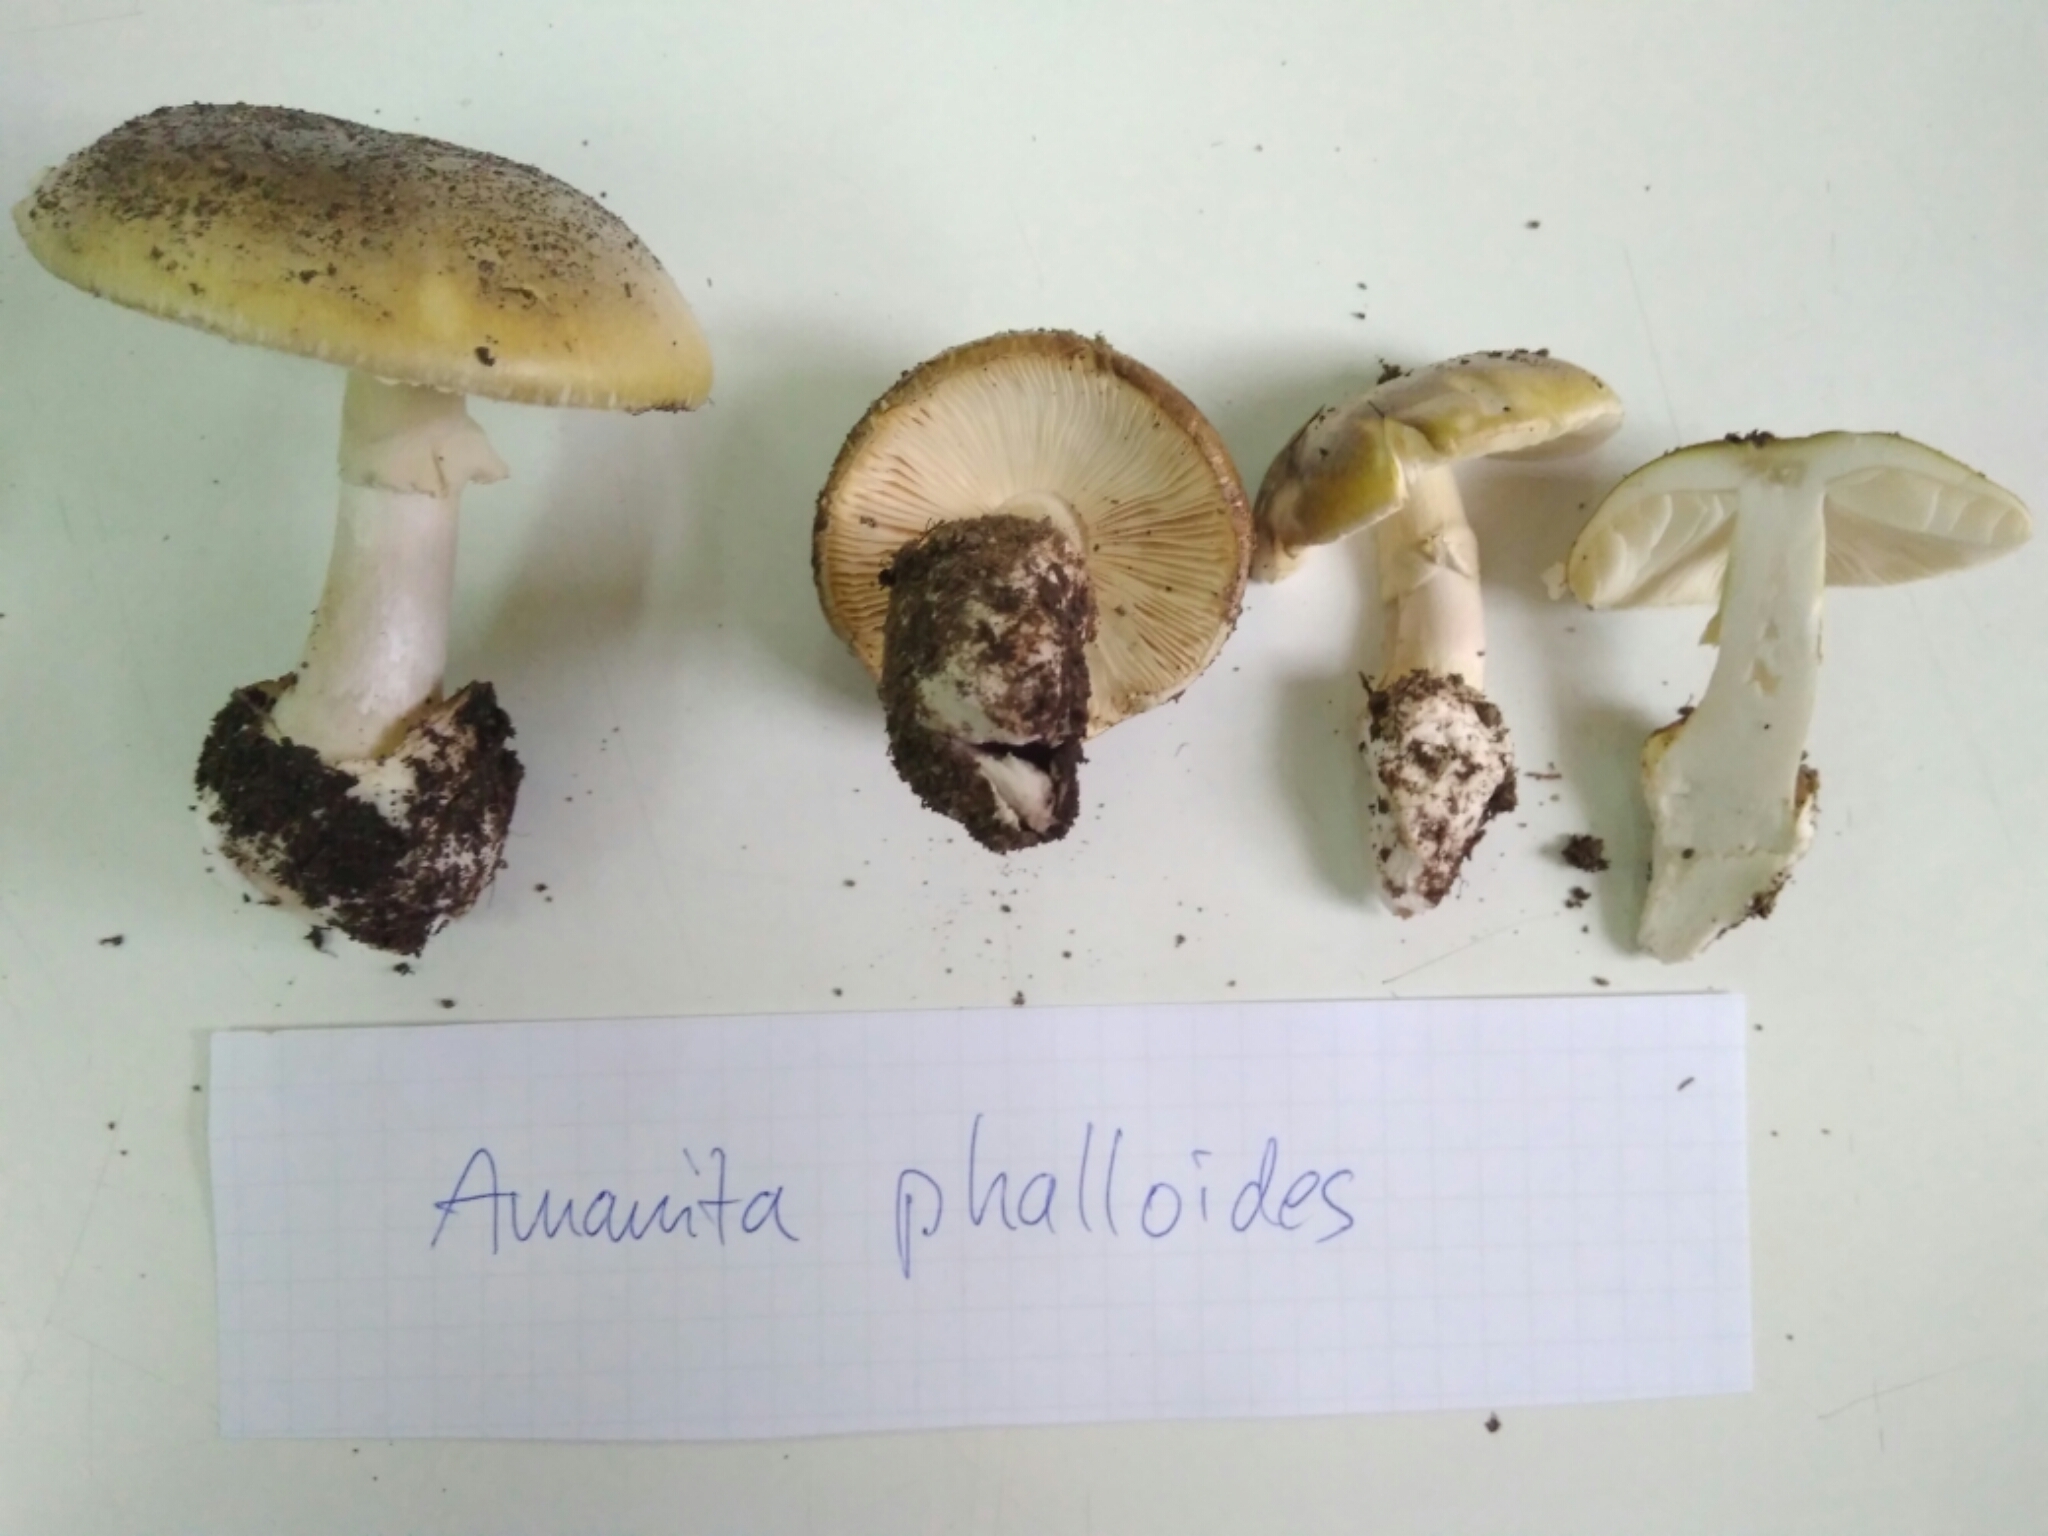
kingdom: Fungi
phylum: Basidiomycota
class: Agaricomycetes
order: Agaricales
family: Amanitaceae
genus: Amanita
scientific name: Amanita phalloides
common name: Death cap
